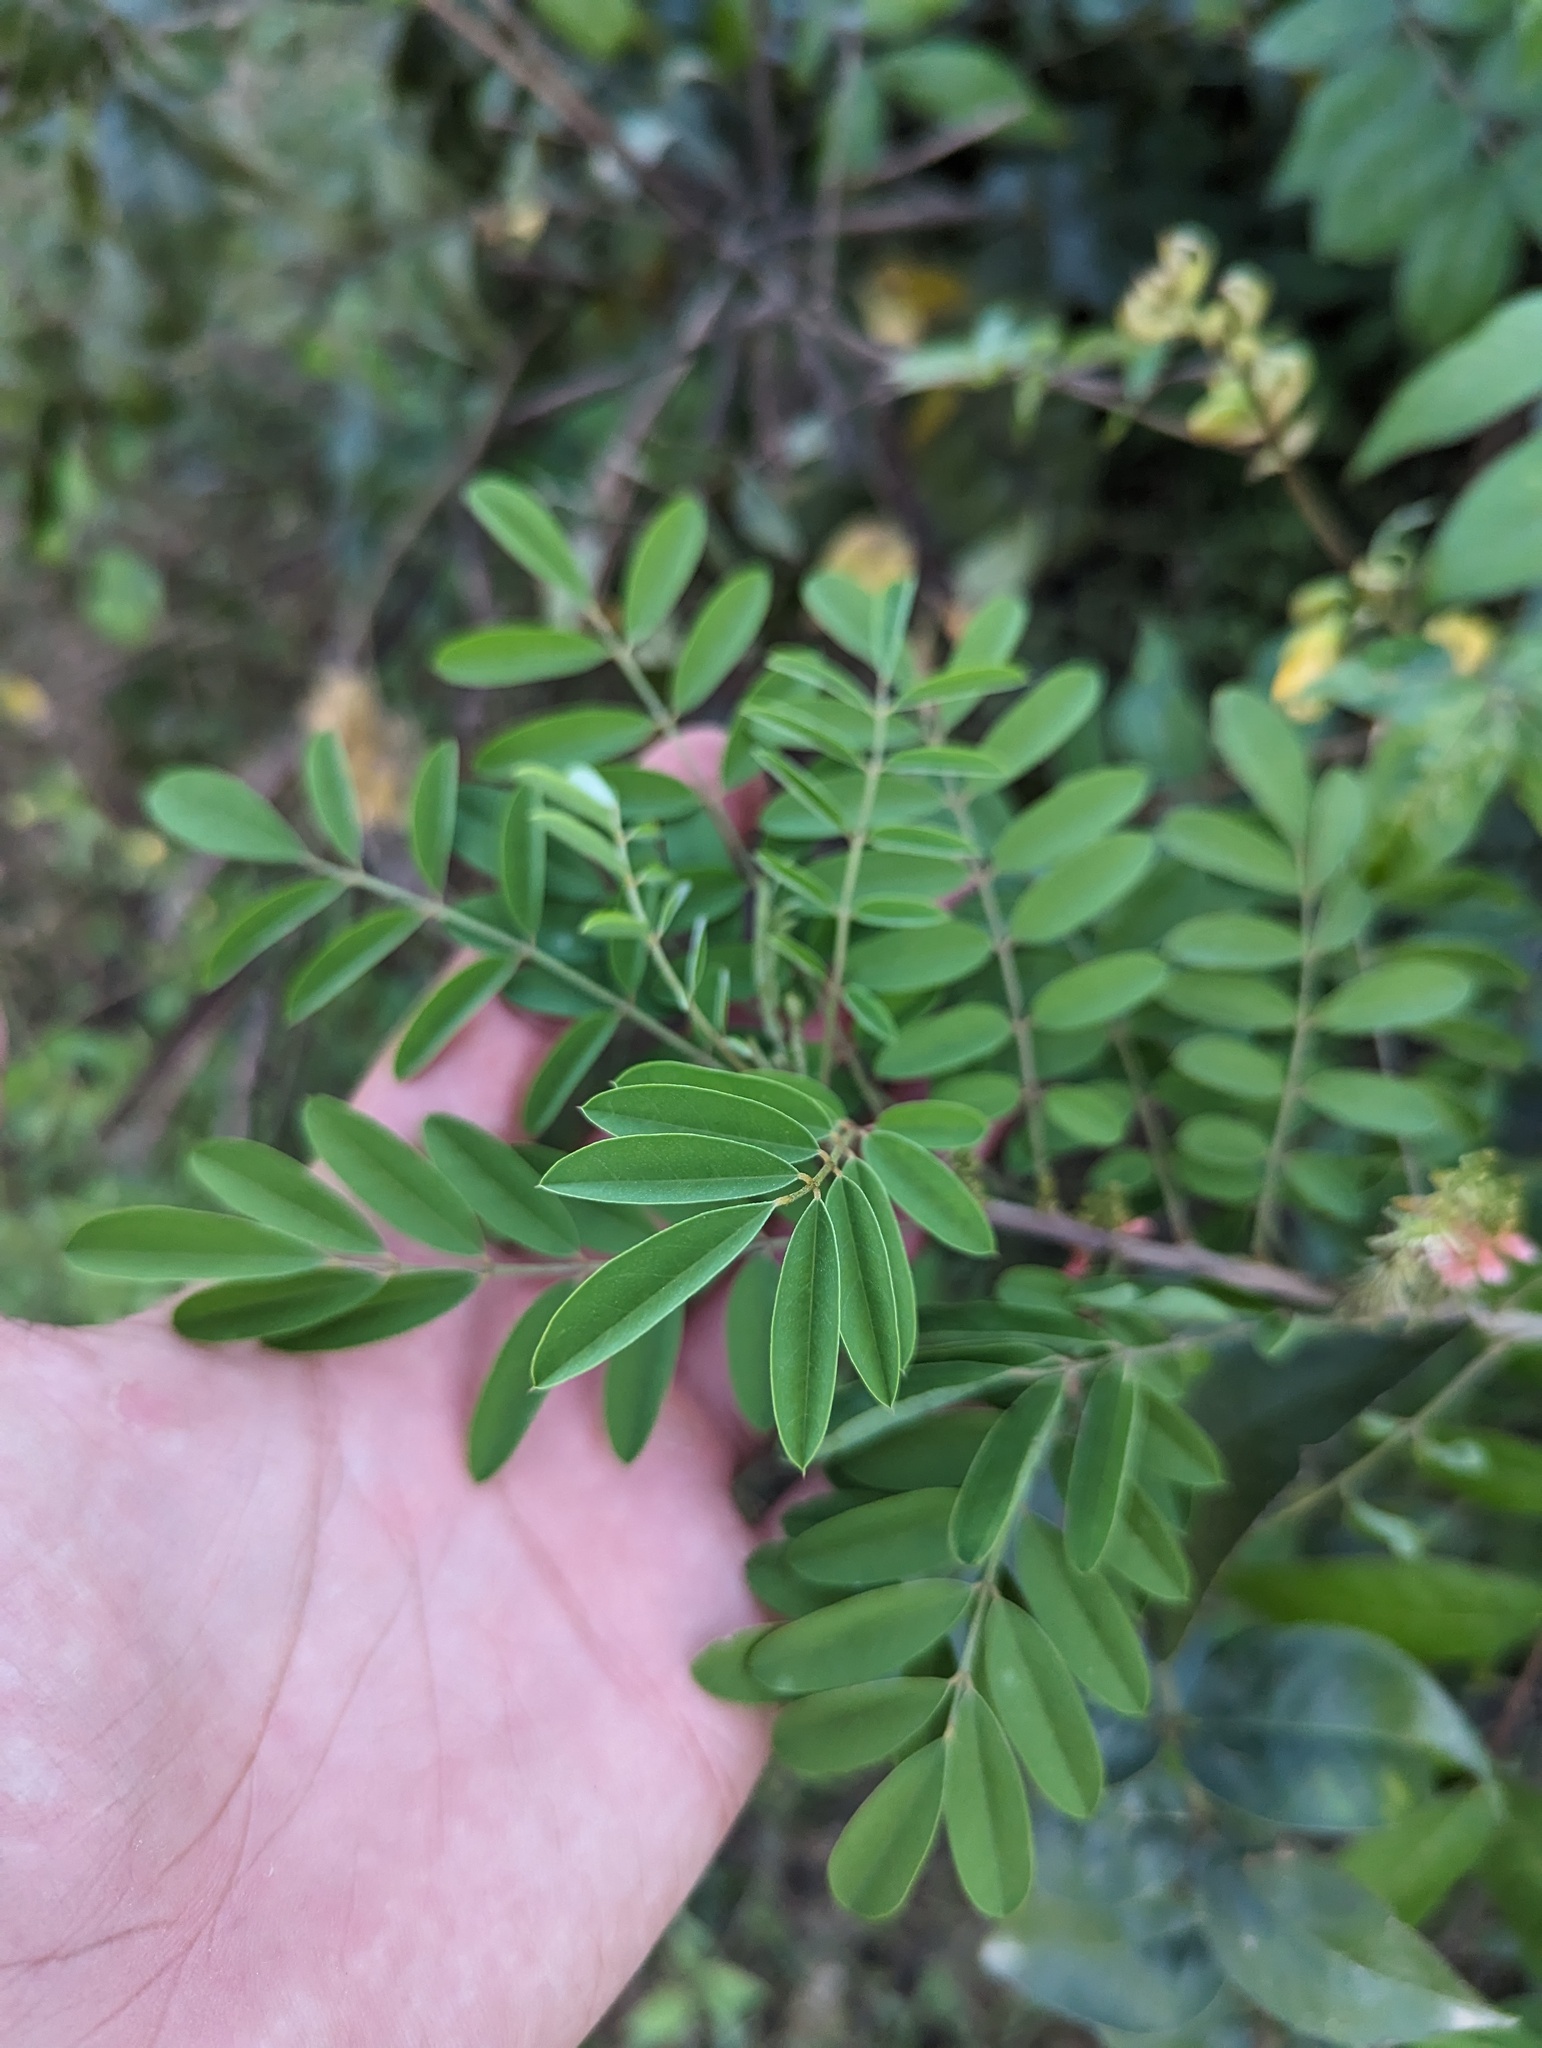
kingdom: Plantae
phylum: Tracheophyta
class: Magnoliopsida
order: Fabales
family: Fabaceae
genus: Indigofera
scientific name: Indigofera suffruticosa
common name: Anil de pasto
